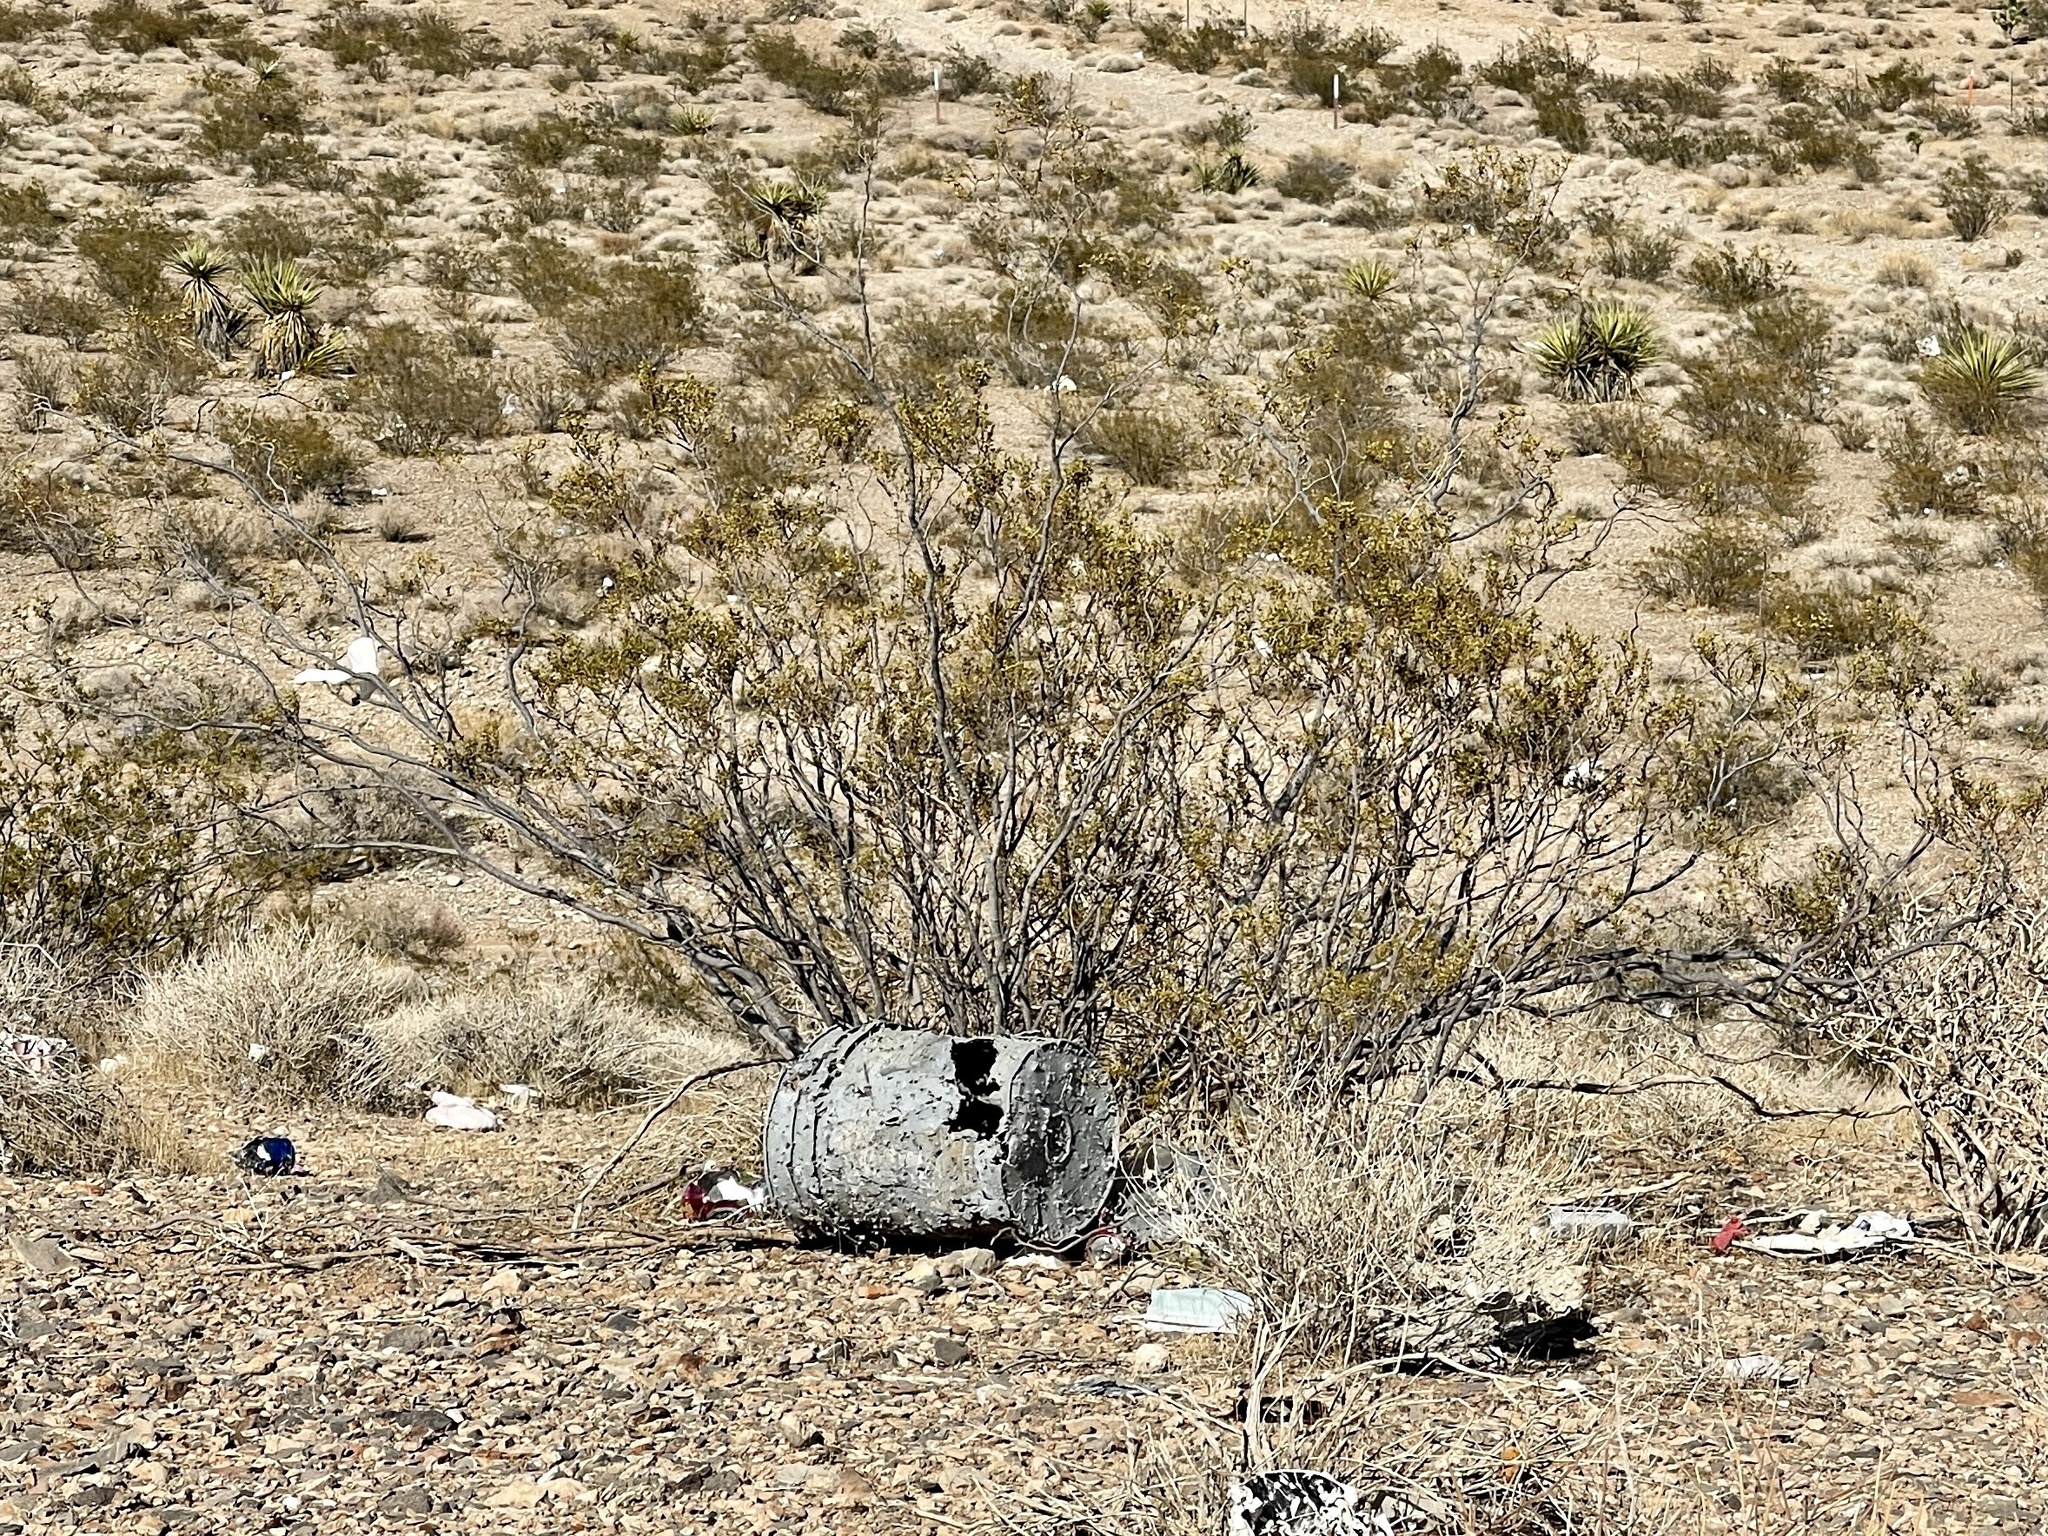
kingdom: Plantae
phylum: Tracheophyta
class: Magnoliopsida
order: Zygophyllales
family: Zygophyllaceae
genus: Larrea
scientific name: Larrea tridentata
